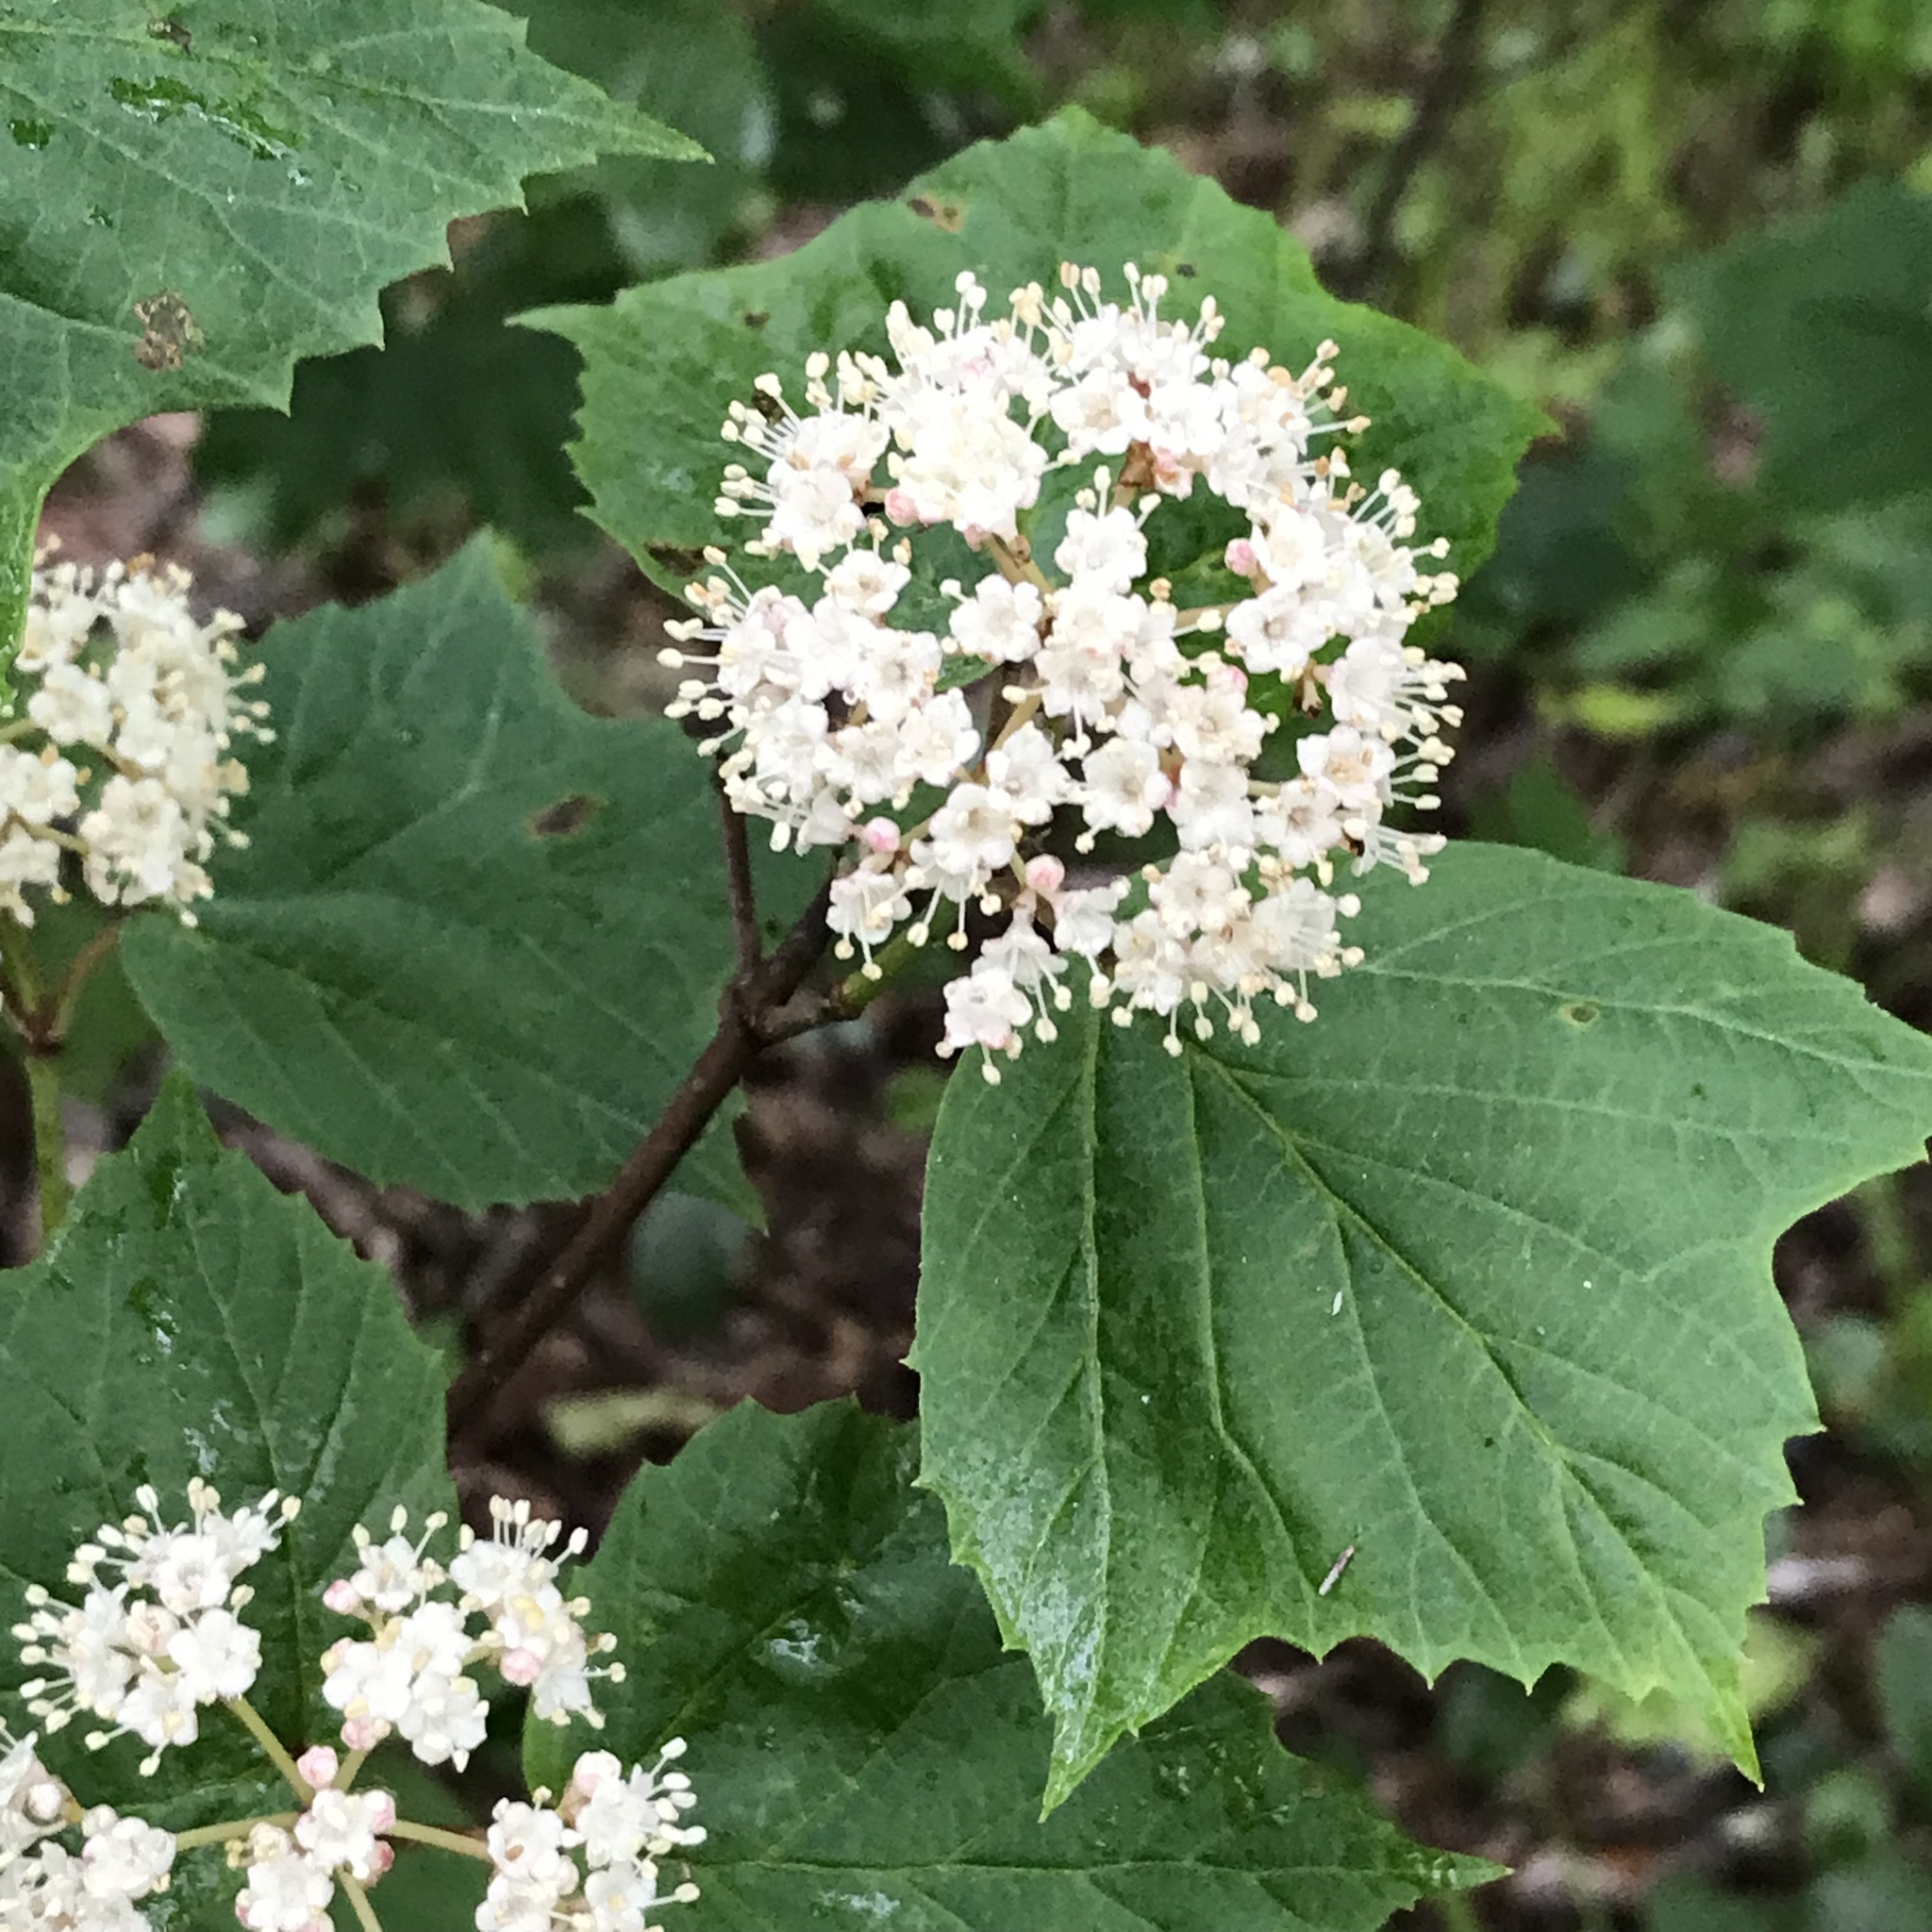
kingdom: Plantae
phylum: Tracheophyta
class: Magnoliopsida
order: Dipsacales
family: Viburnaceae
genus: Viburnum
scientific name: Viburnum acerifolium
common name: Dockmackie
